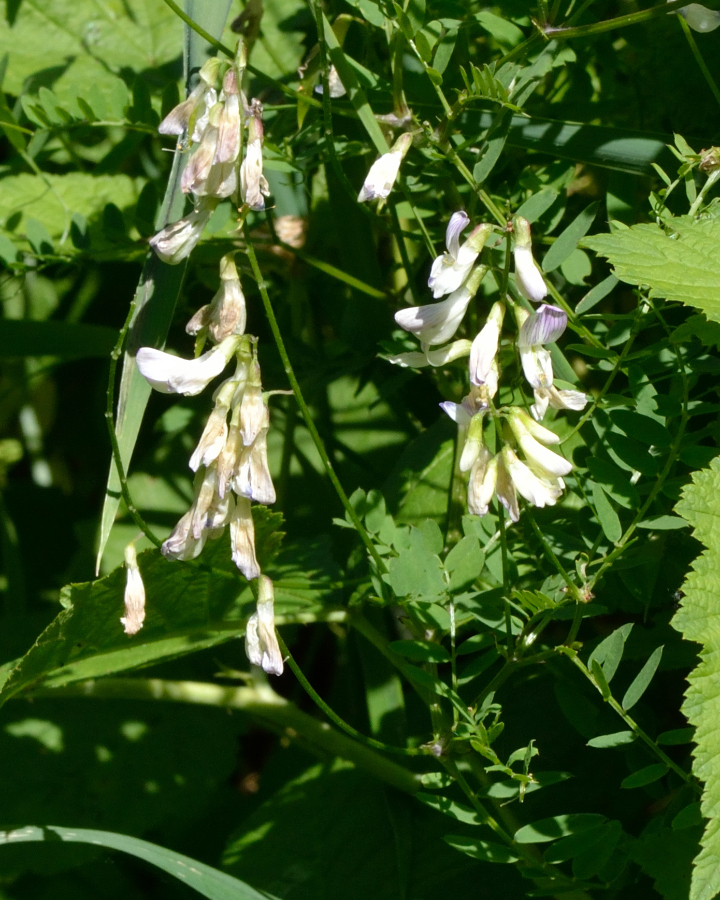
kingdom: Plantae
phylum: Tracheophyta
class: Magnoliopsida
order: Fabales
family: Fabaceae
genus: Vicia
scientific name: Vicia sylvatica
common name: Wood vetch
